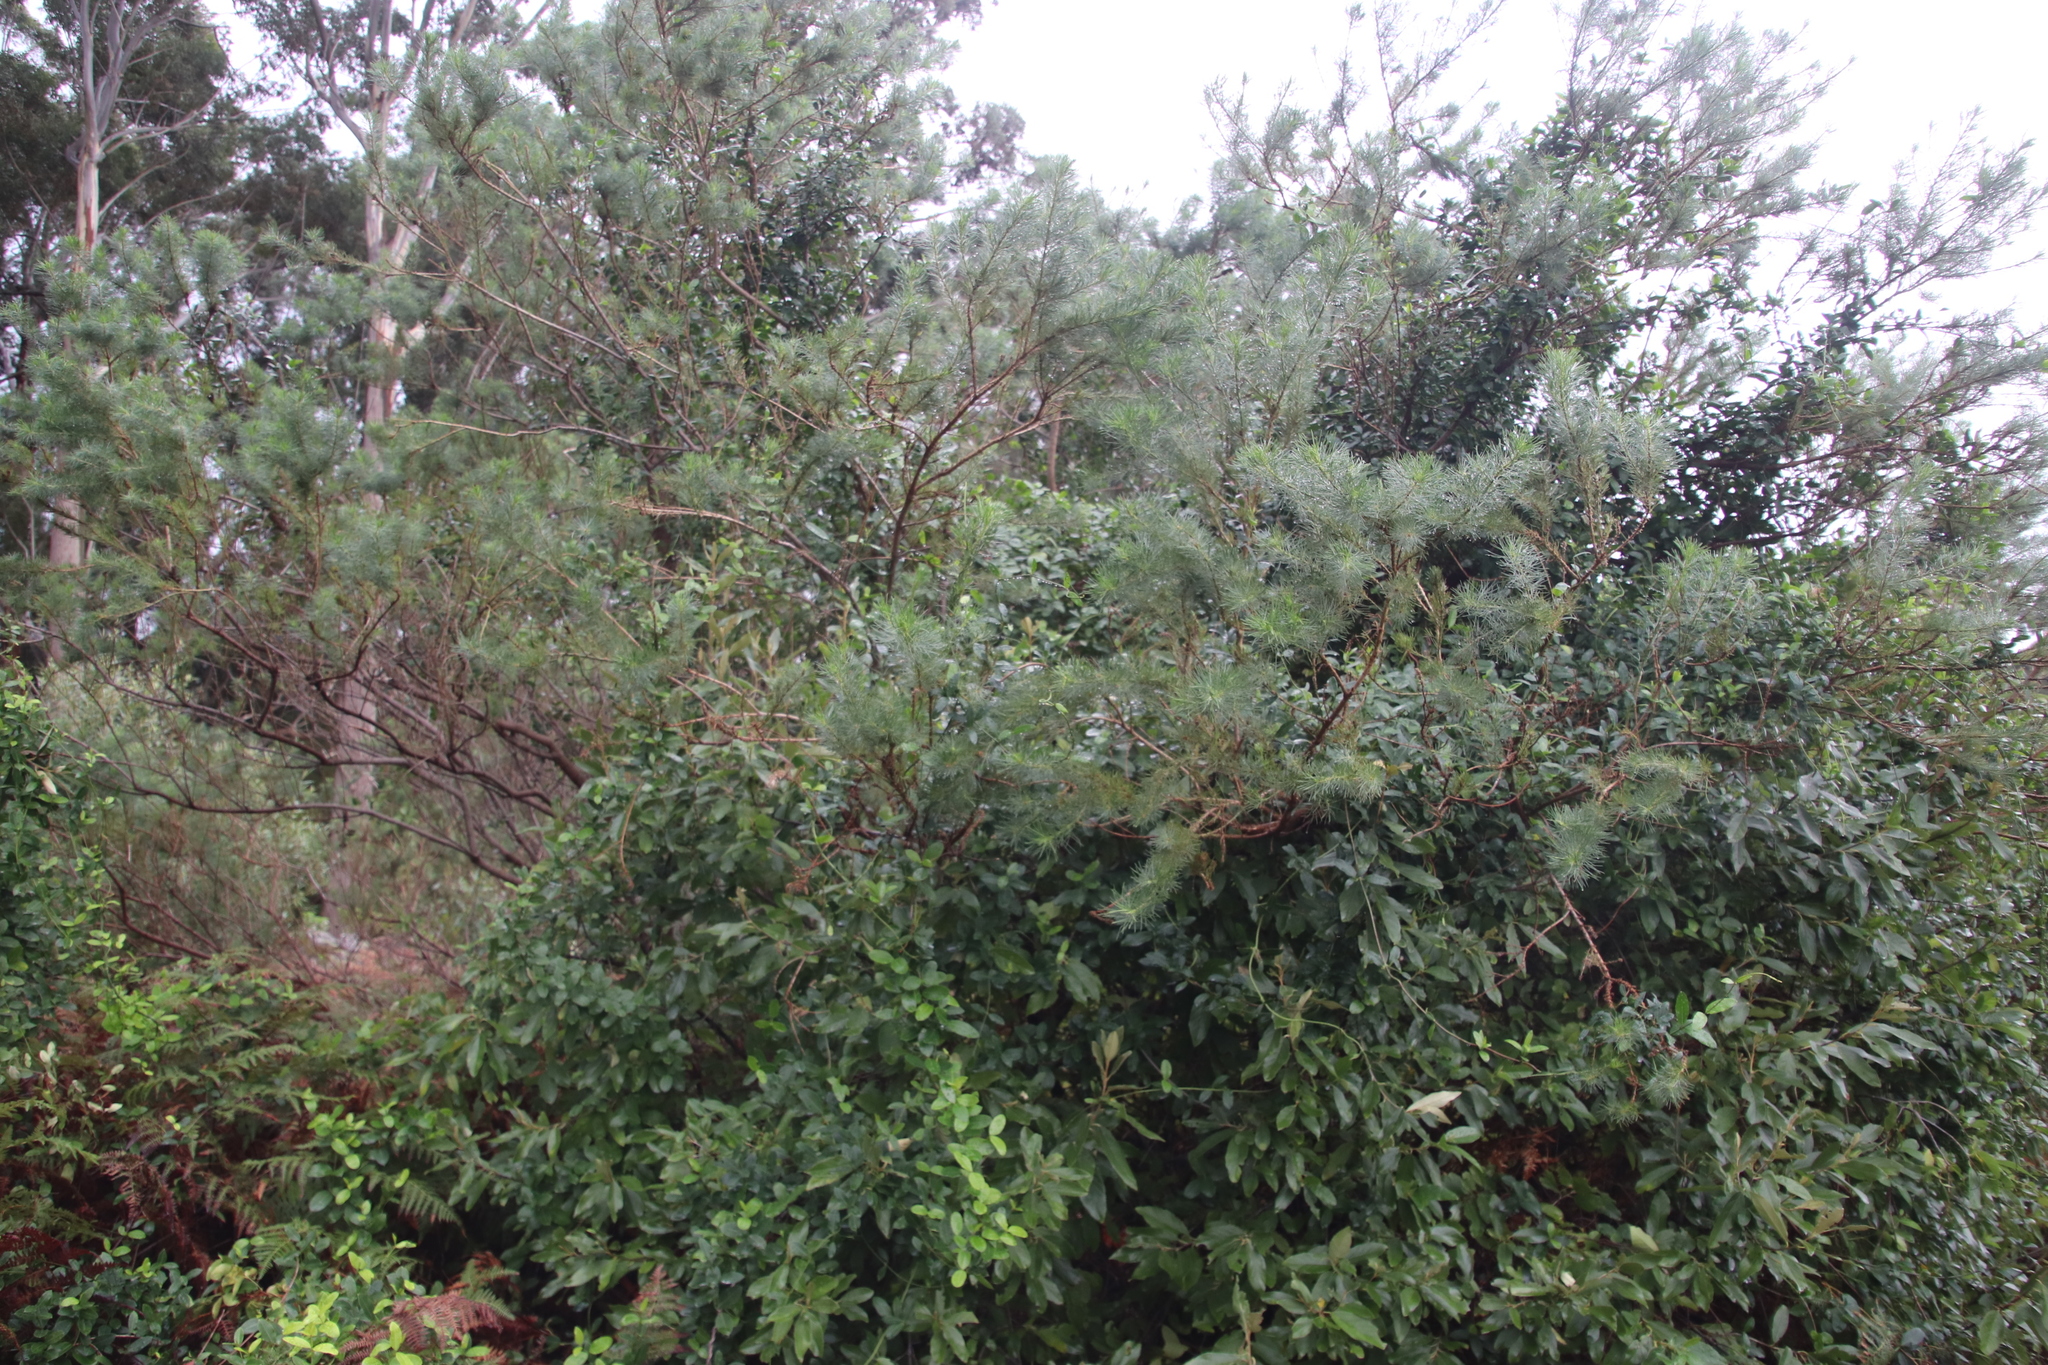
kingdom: Plantae
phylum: Tracheophyta
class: Magnoliopsida
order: Fabales
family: Fabaceae
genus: Psoralea
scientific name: Psoralea pinnata
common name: African scurfpea
